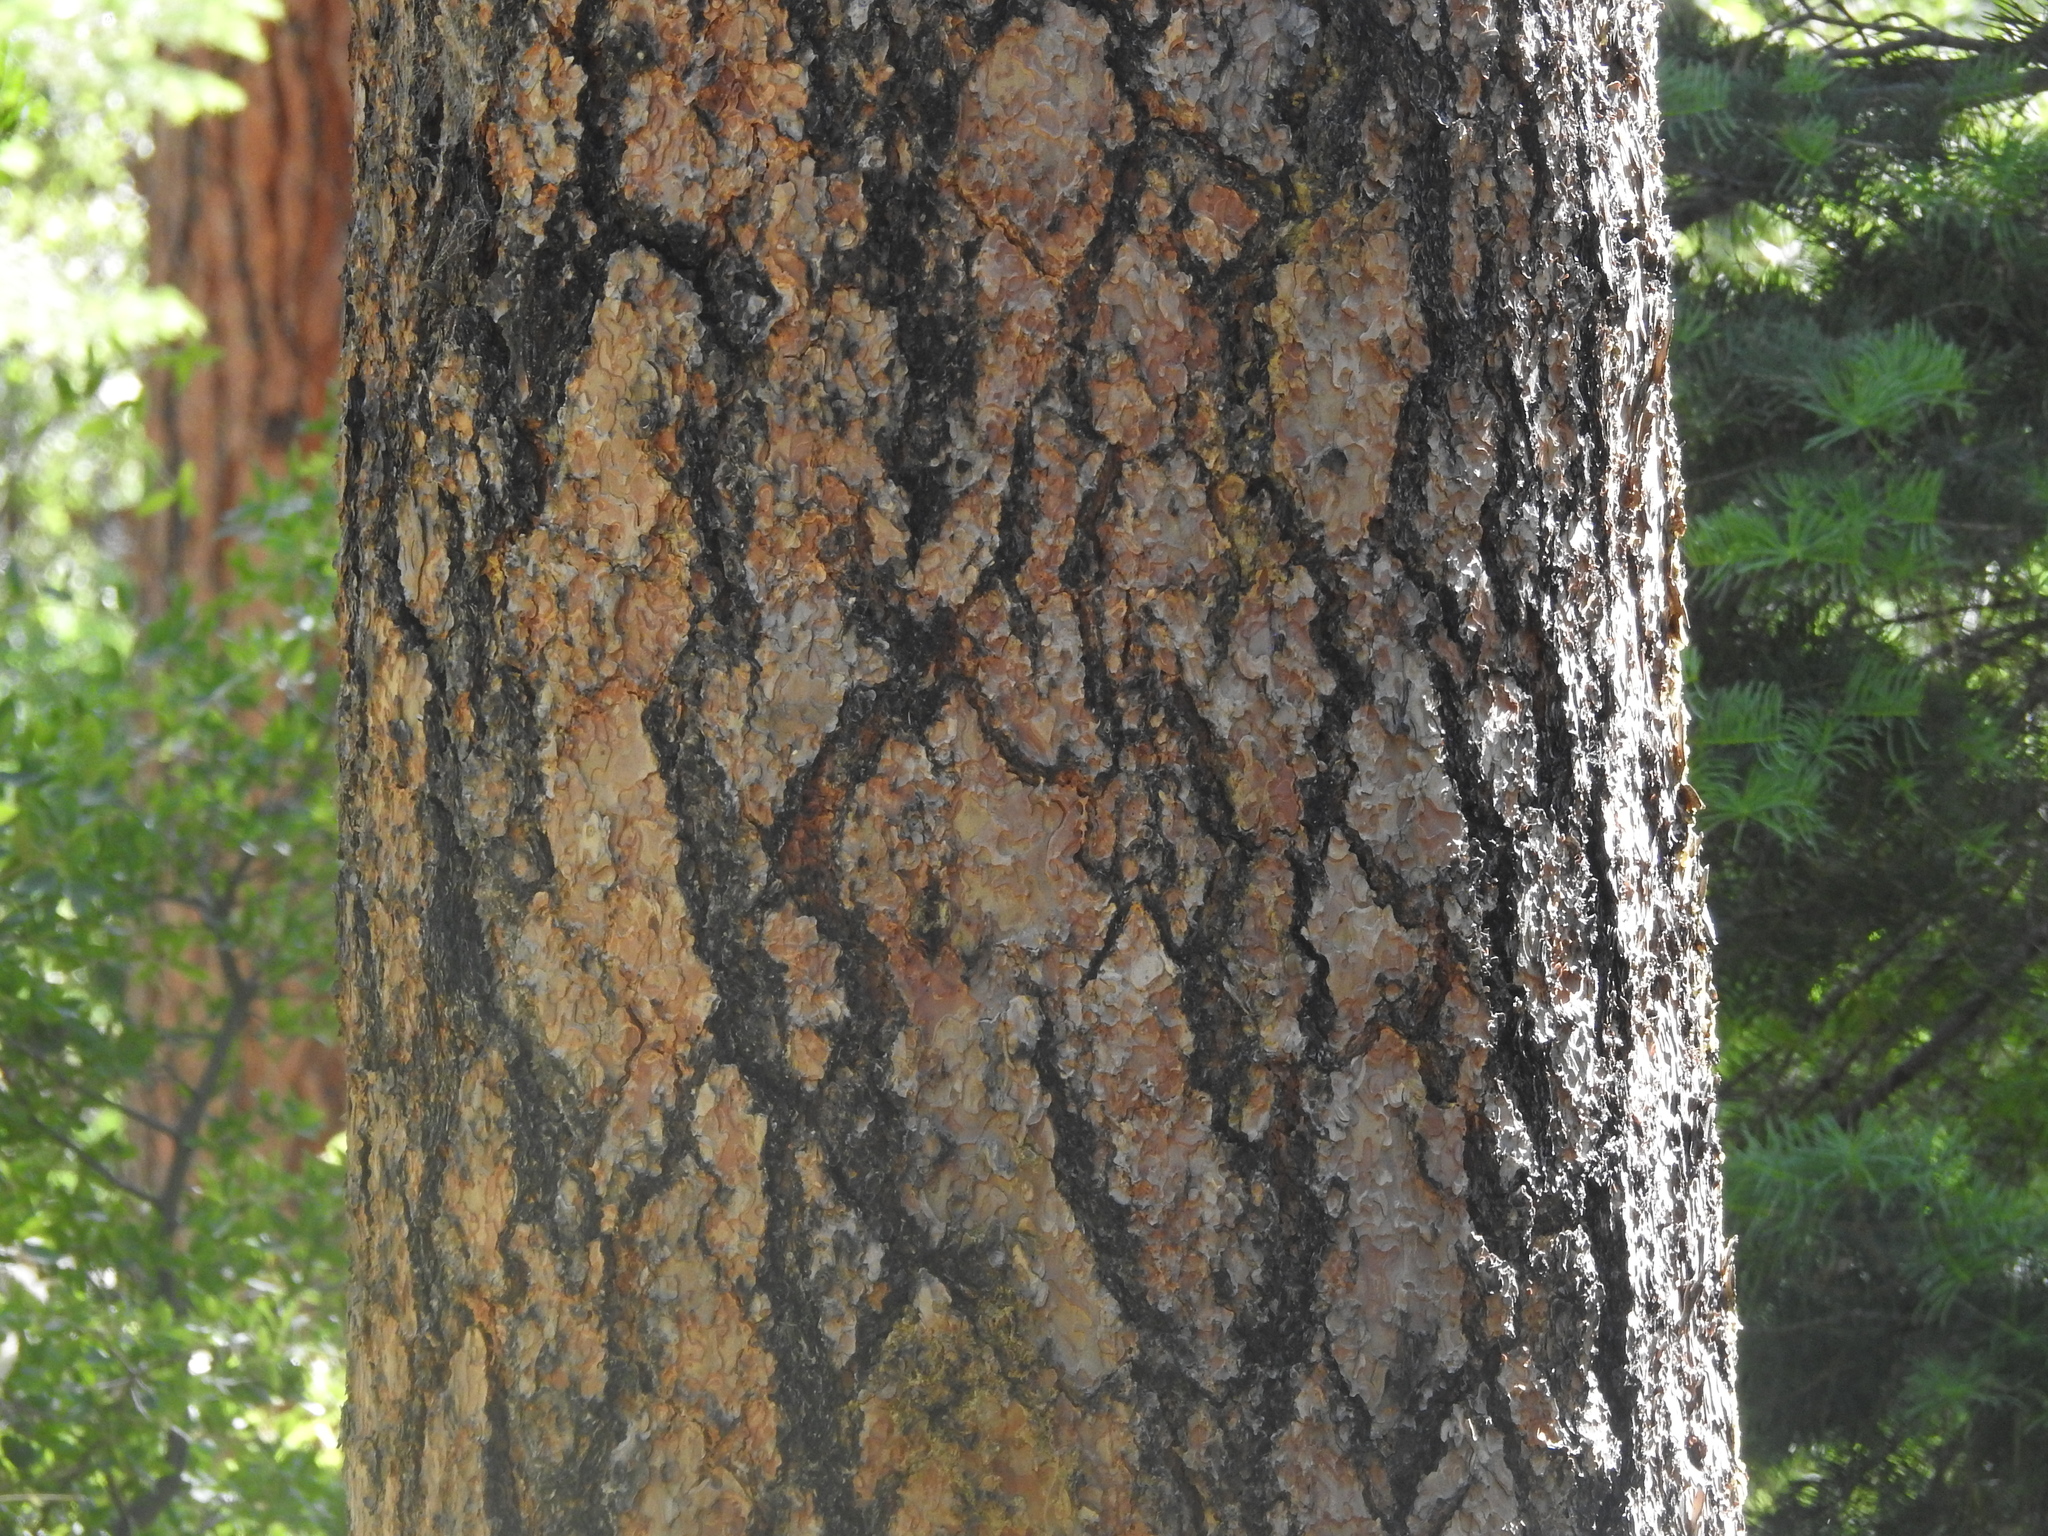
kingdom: Plantae
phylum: Tracheophyta
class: Pinopsida
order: Pinales
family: Pinaceae
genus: Pinus
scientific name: Pinus ponderosa
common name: Western yellow-pine
